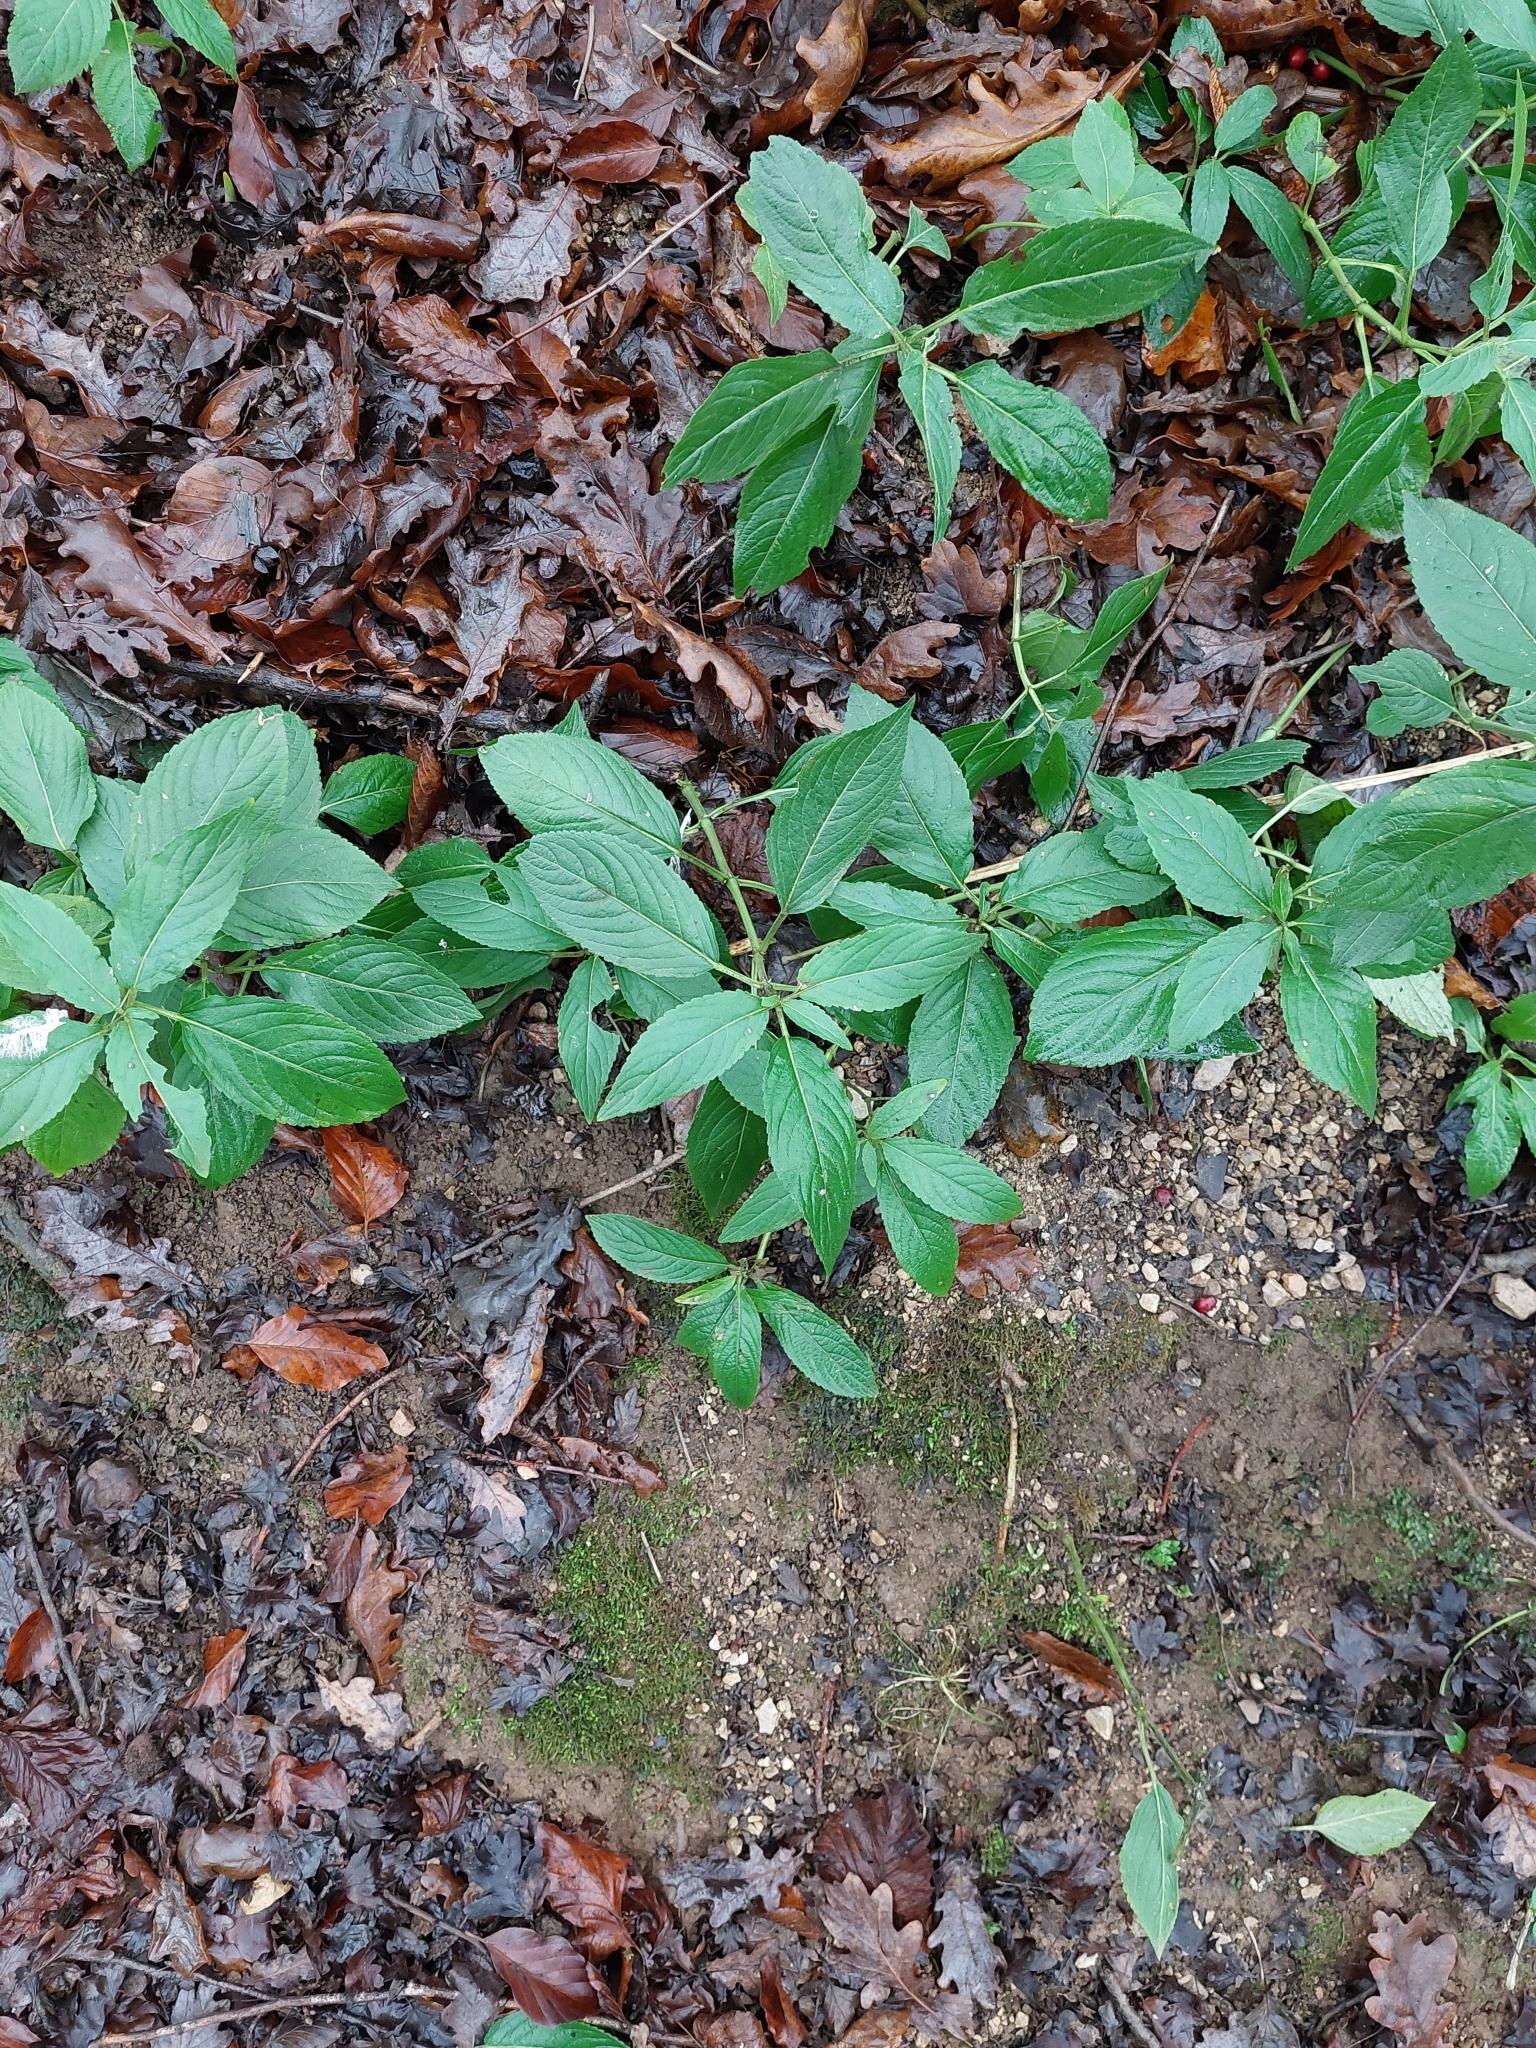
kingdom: Plantae
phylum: Tracheophyta
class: Magnoliopsida
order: Malpighiales
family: Euphorbiaceae
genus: Mercurialis
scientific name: Mercurialis perennis
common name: Dog mercury
